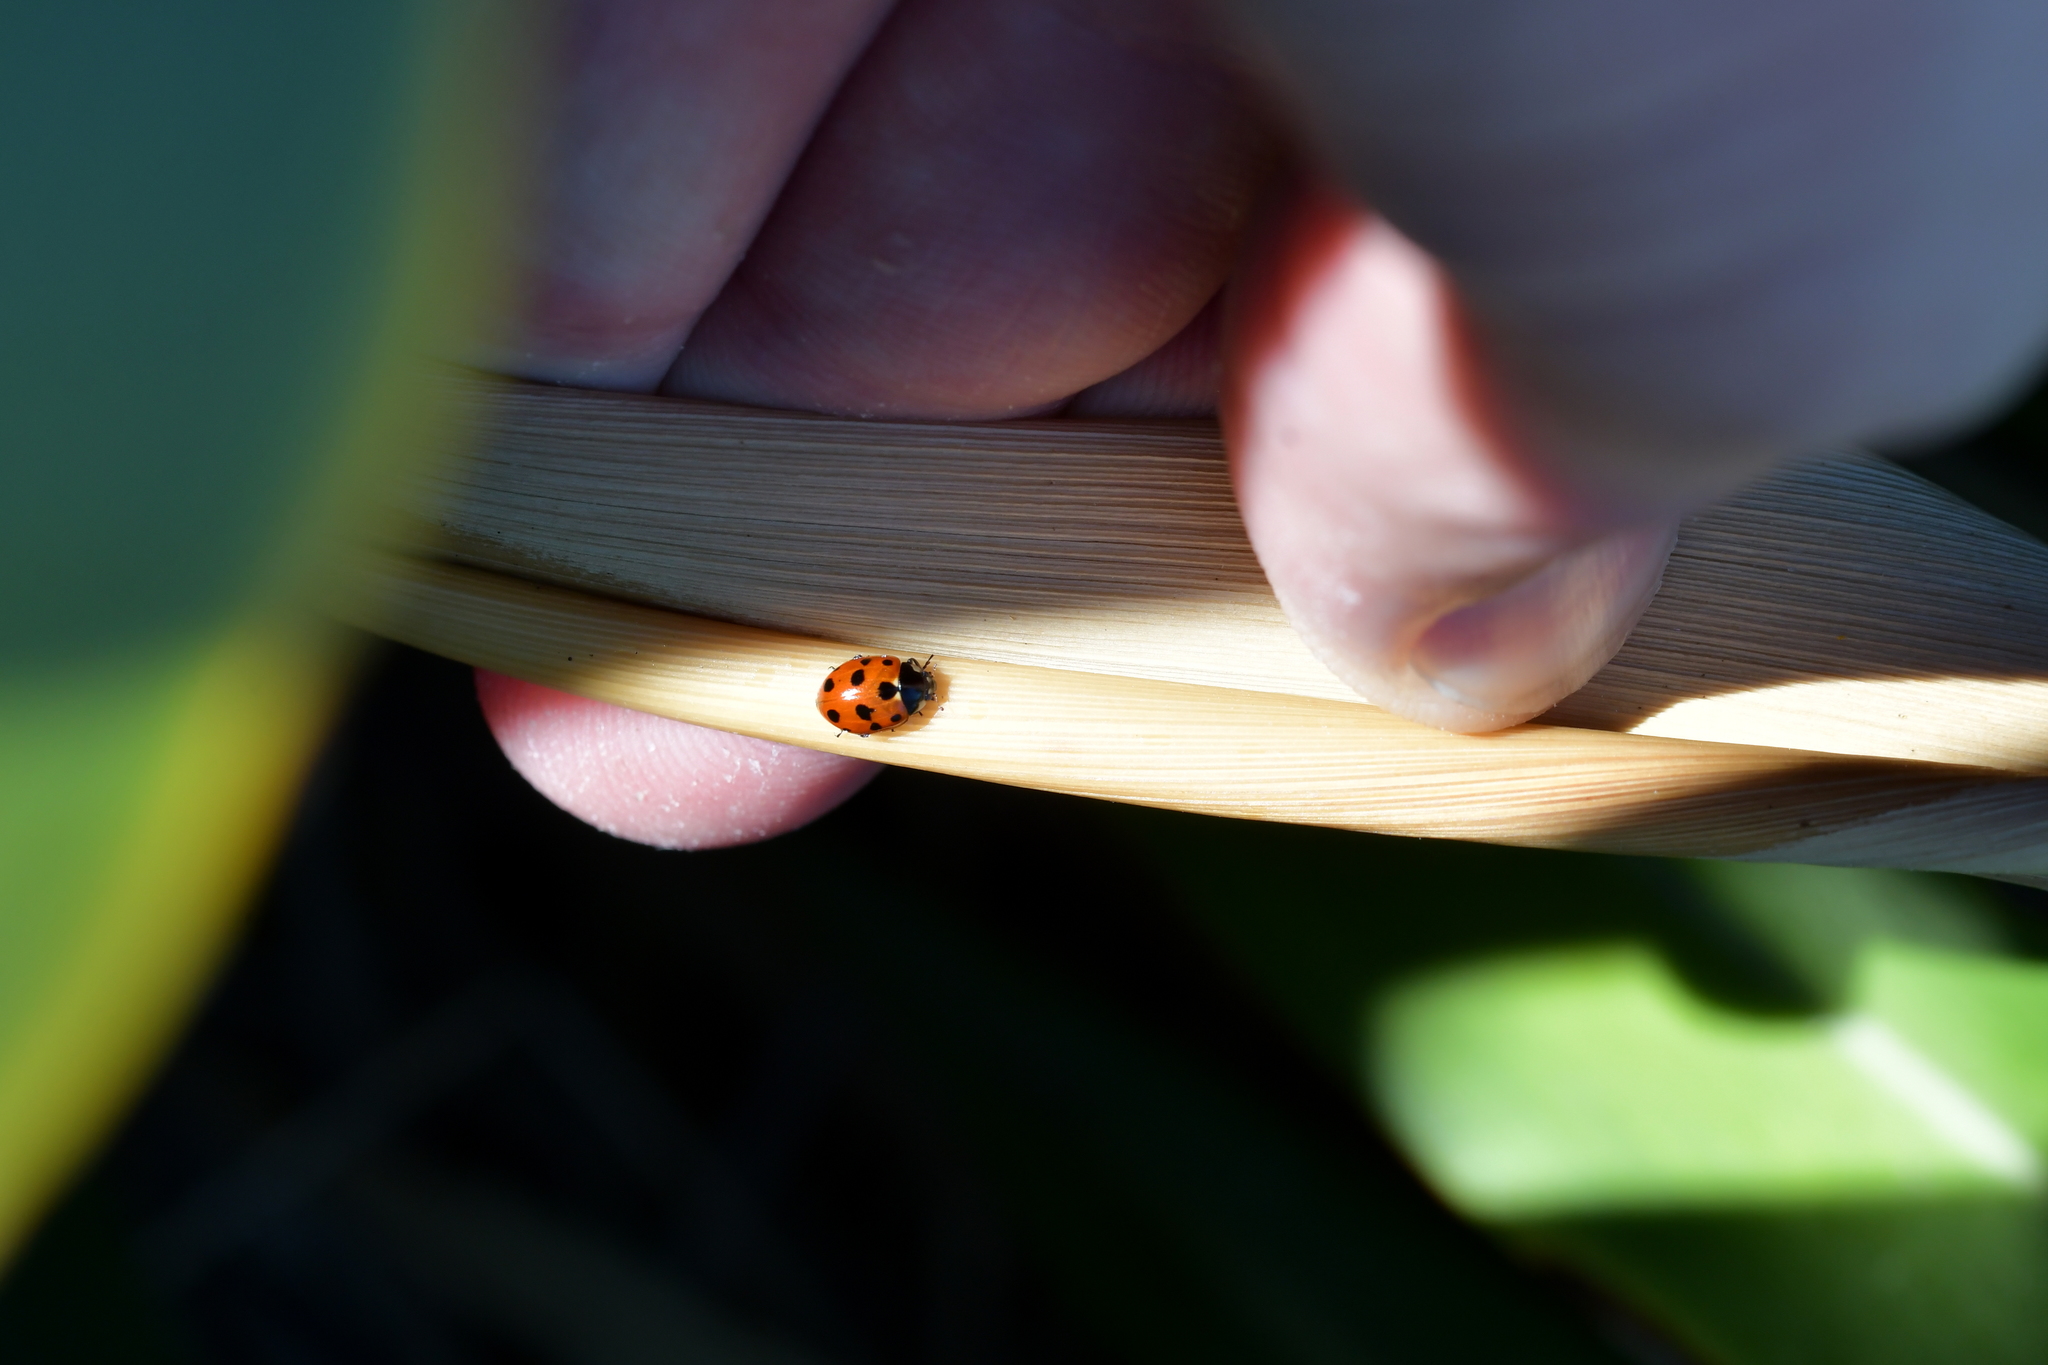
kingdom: Animalia
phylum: Arthropoda
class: Insecta
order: Coleoptera
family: Coccinellidae
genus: Coccinella
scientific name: Coccinella undecimpunctata
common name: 11-spot ladybird
